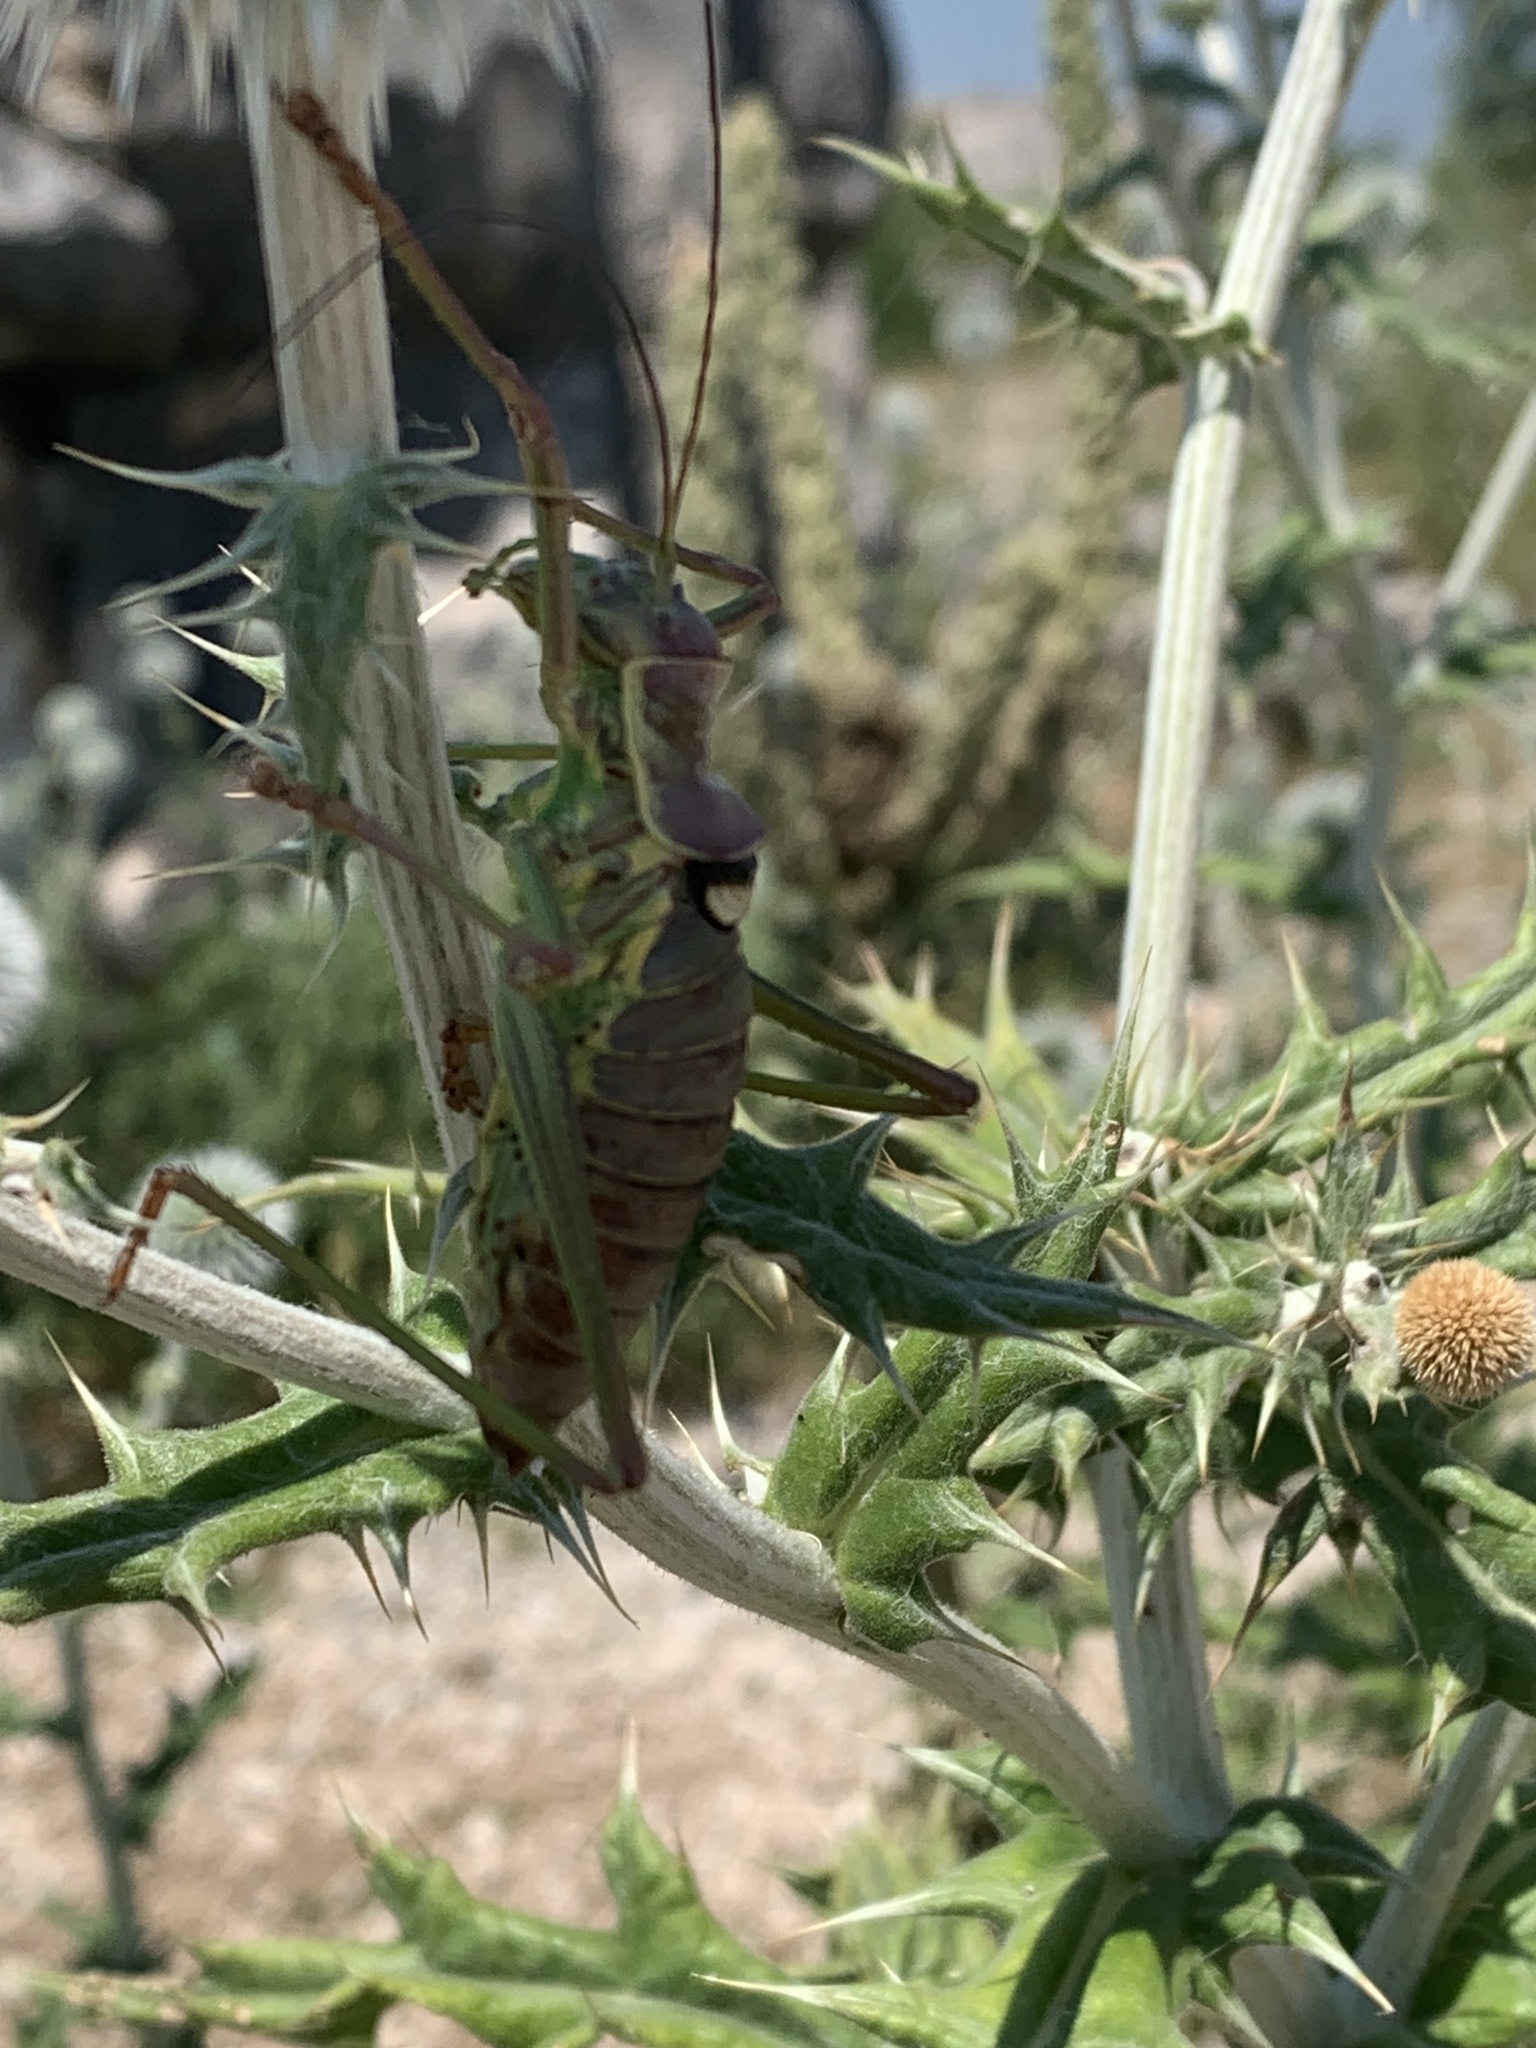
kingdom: Animalia
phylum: Arthropoda
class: Insecta
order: Orthoptera
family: Tettigoniidae
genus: Dinarippiger
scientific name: Dinarippiger discoidalis
